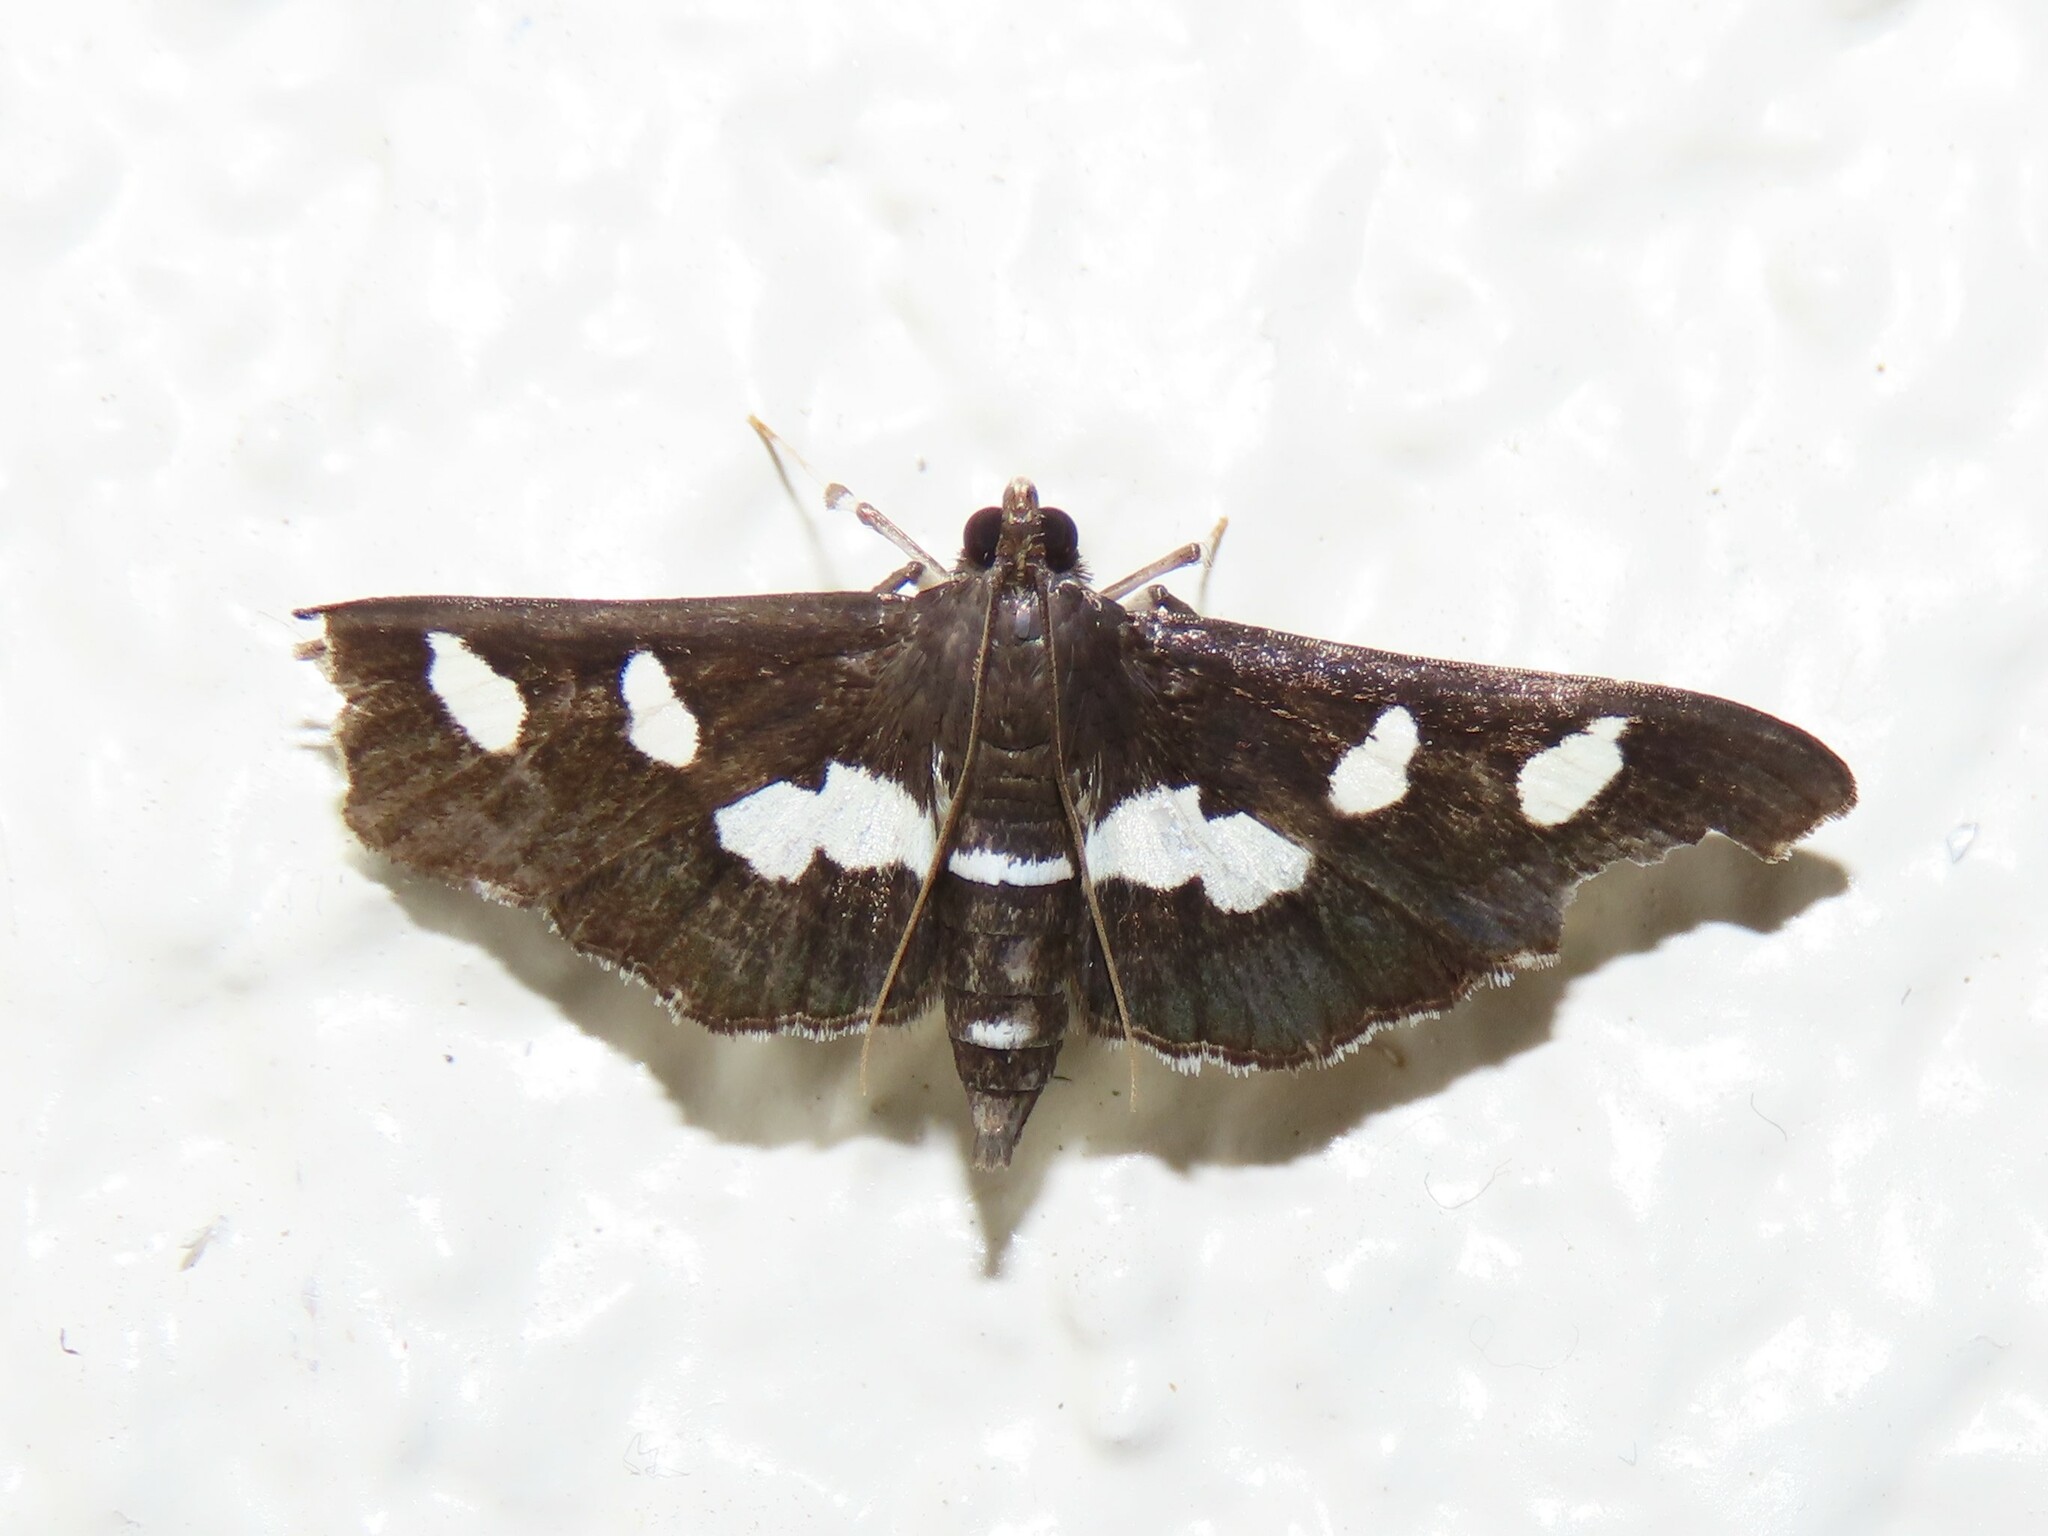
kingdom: Animalia
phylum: Arthropoda
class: Insecta
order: Lepidoptera
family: Crambidae
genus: Desmia
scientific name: Desmia
